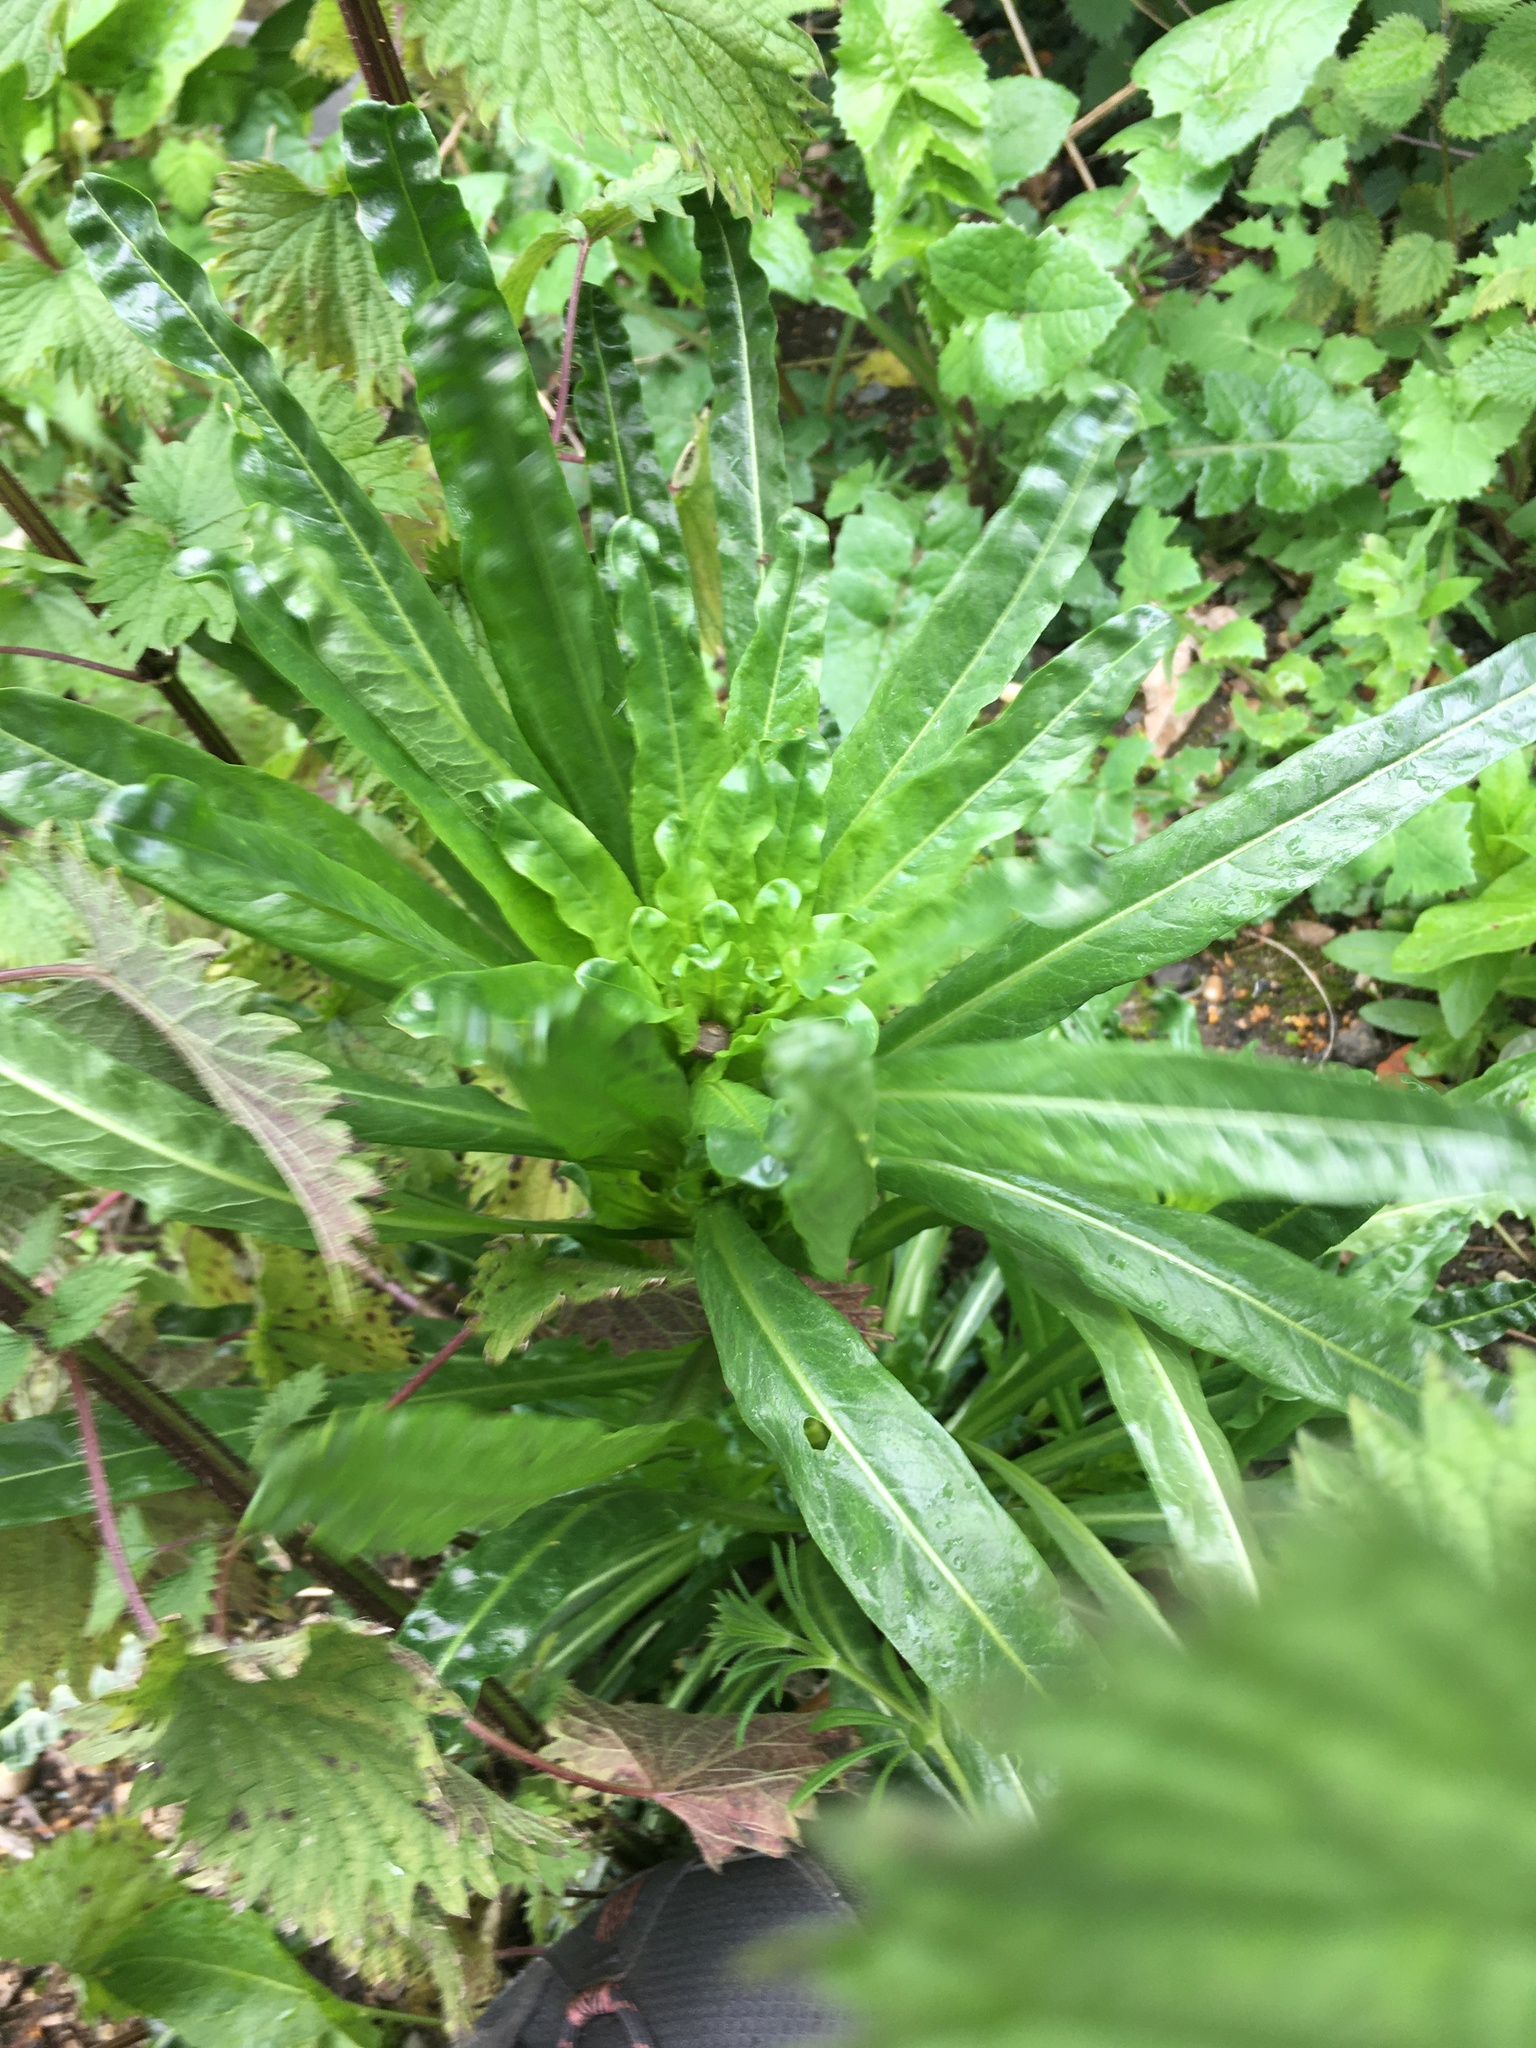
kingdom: Plantae
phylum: Tracheophyta
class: Magnoliopsida
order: Brassicales
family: Resedaceae
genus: Reseda
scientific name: Reseda luteola
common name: Weld
